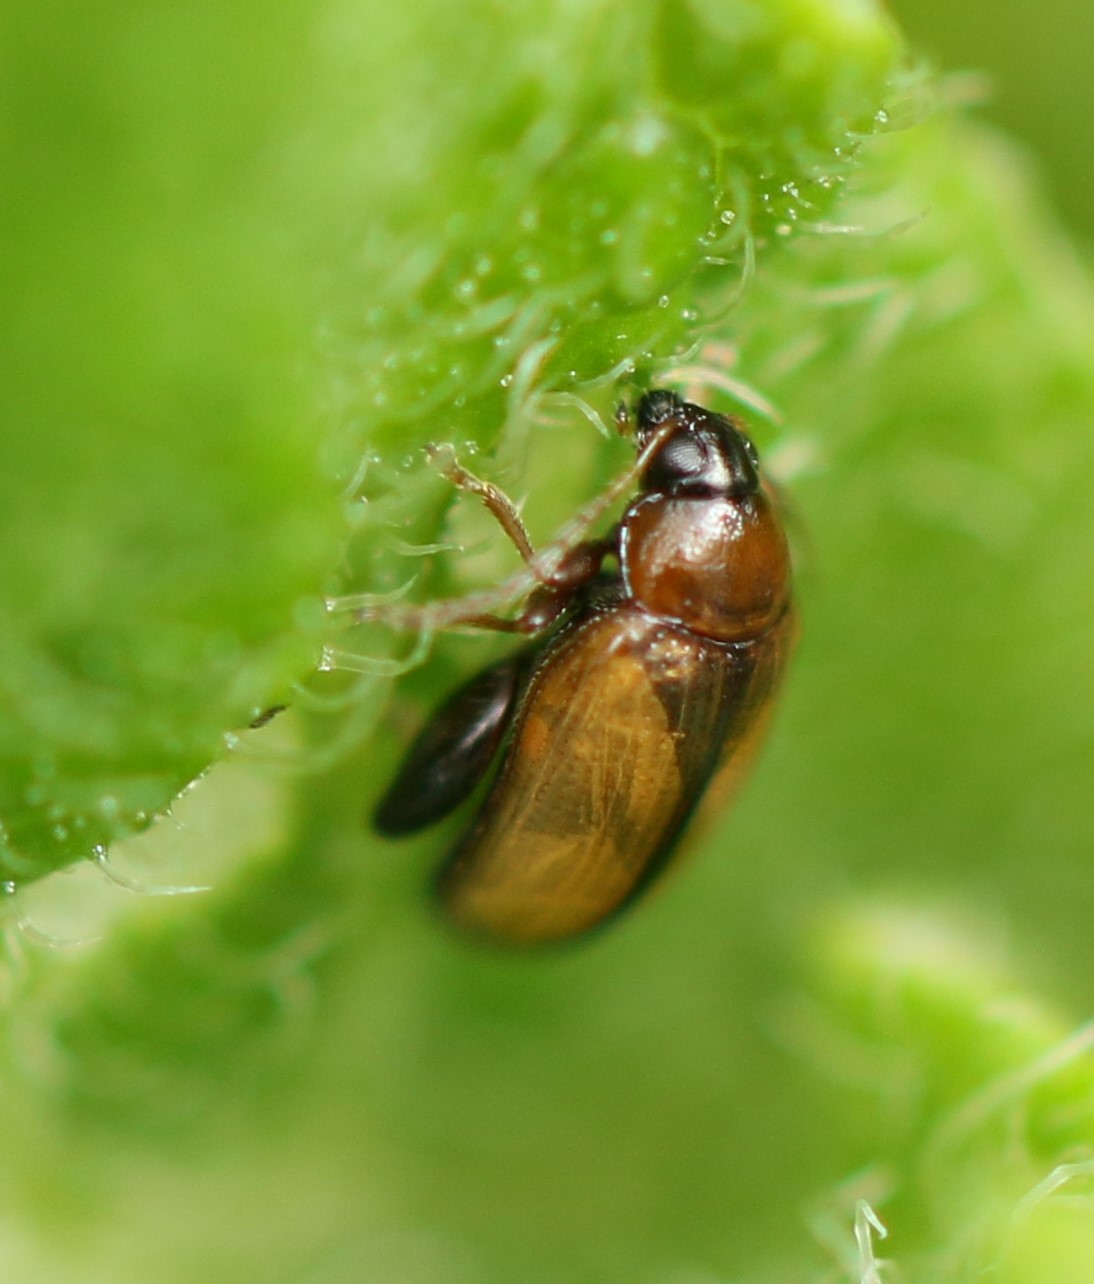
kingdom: Animalia
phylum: Arthropoda
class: Insecta
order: Coleoptera
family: Chrysomelidae
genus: Psylliodes
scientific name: Psylliodes affinis
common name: Potato flea beetle
